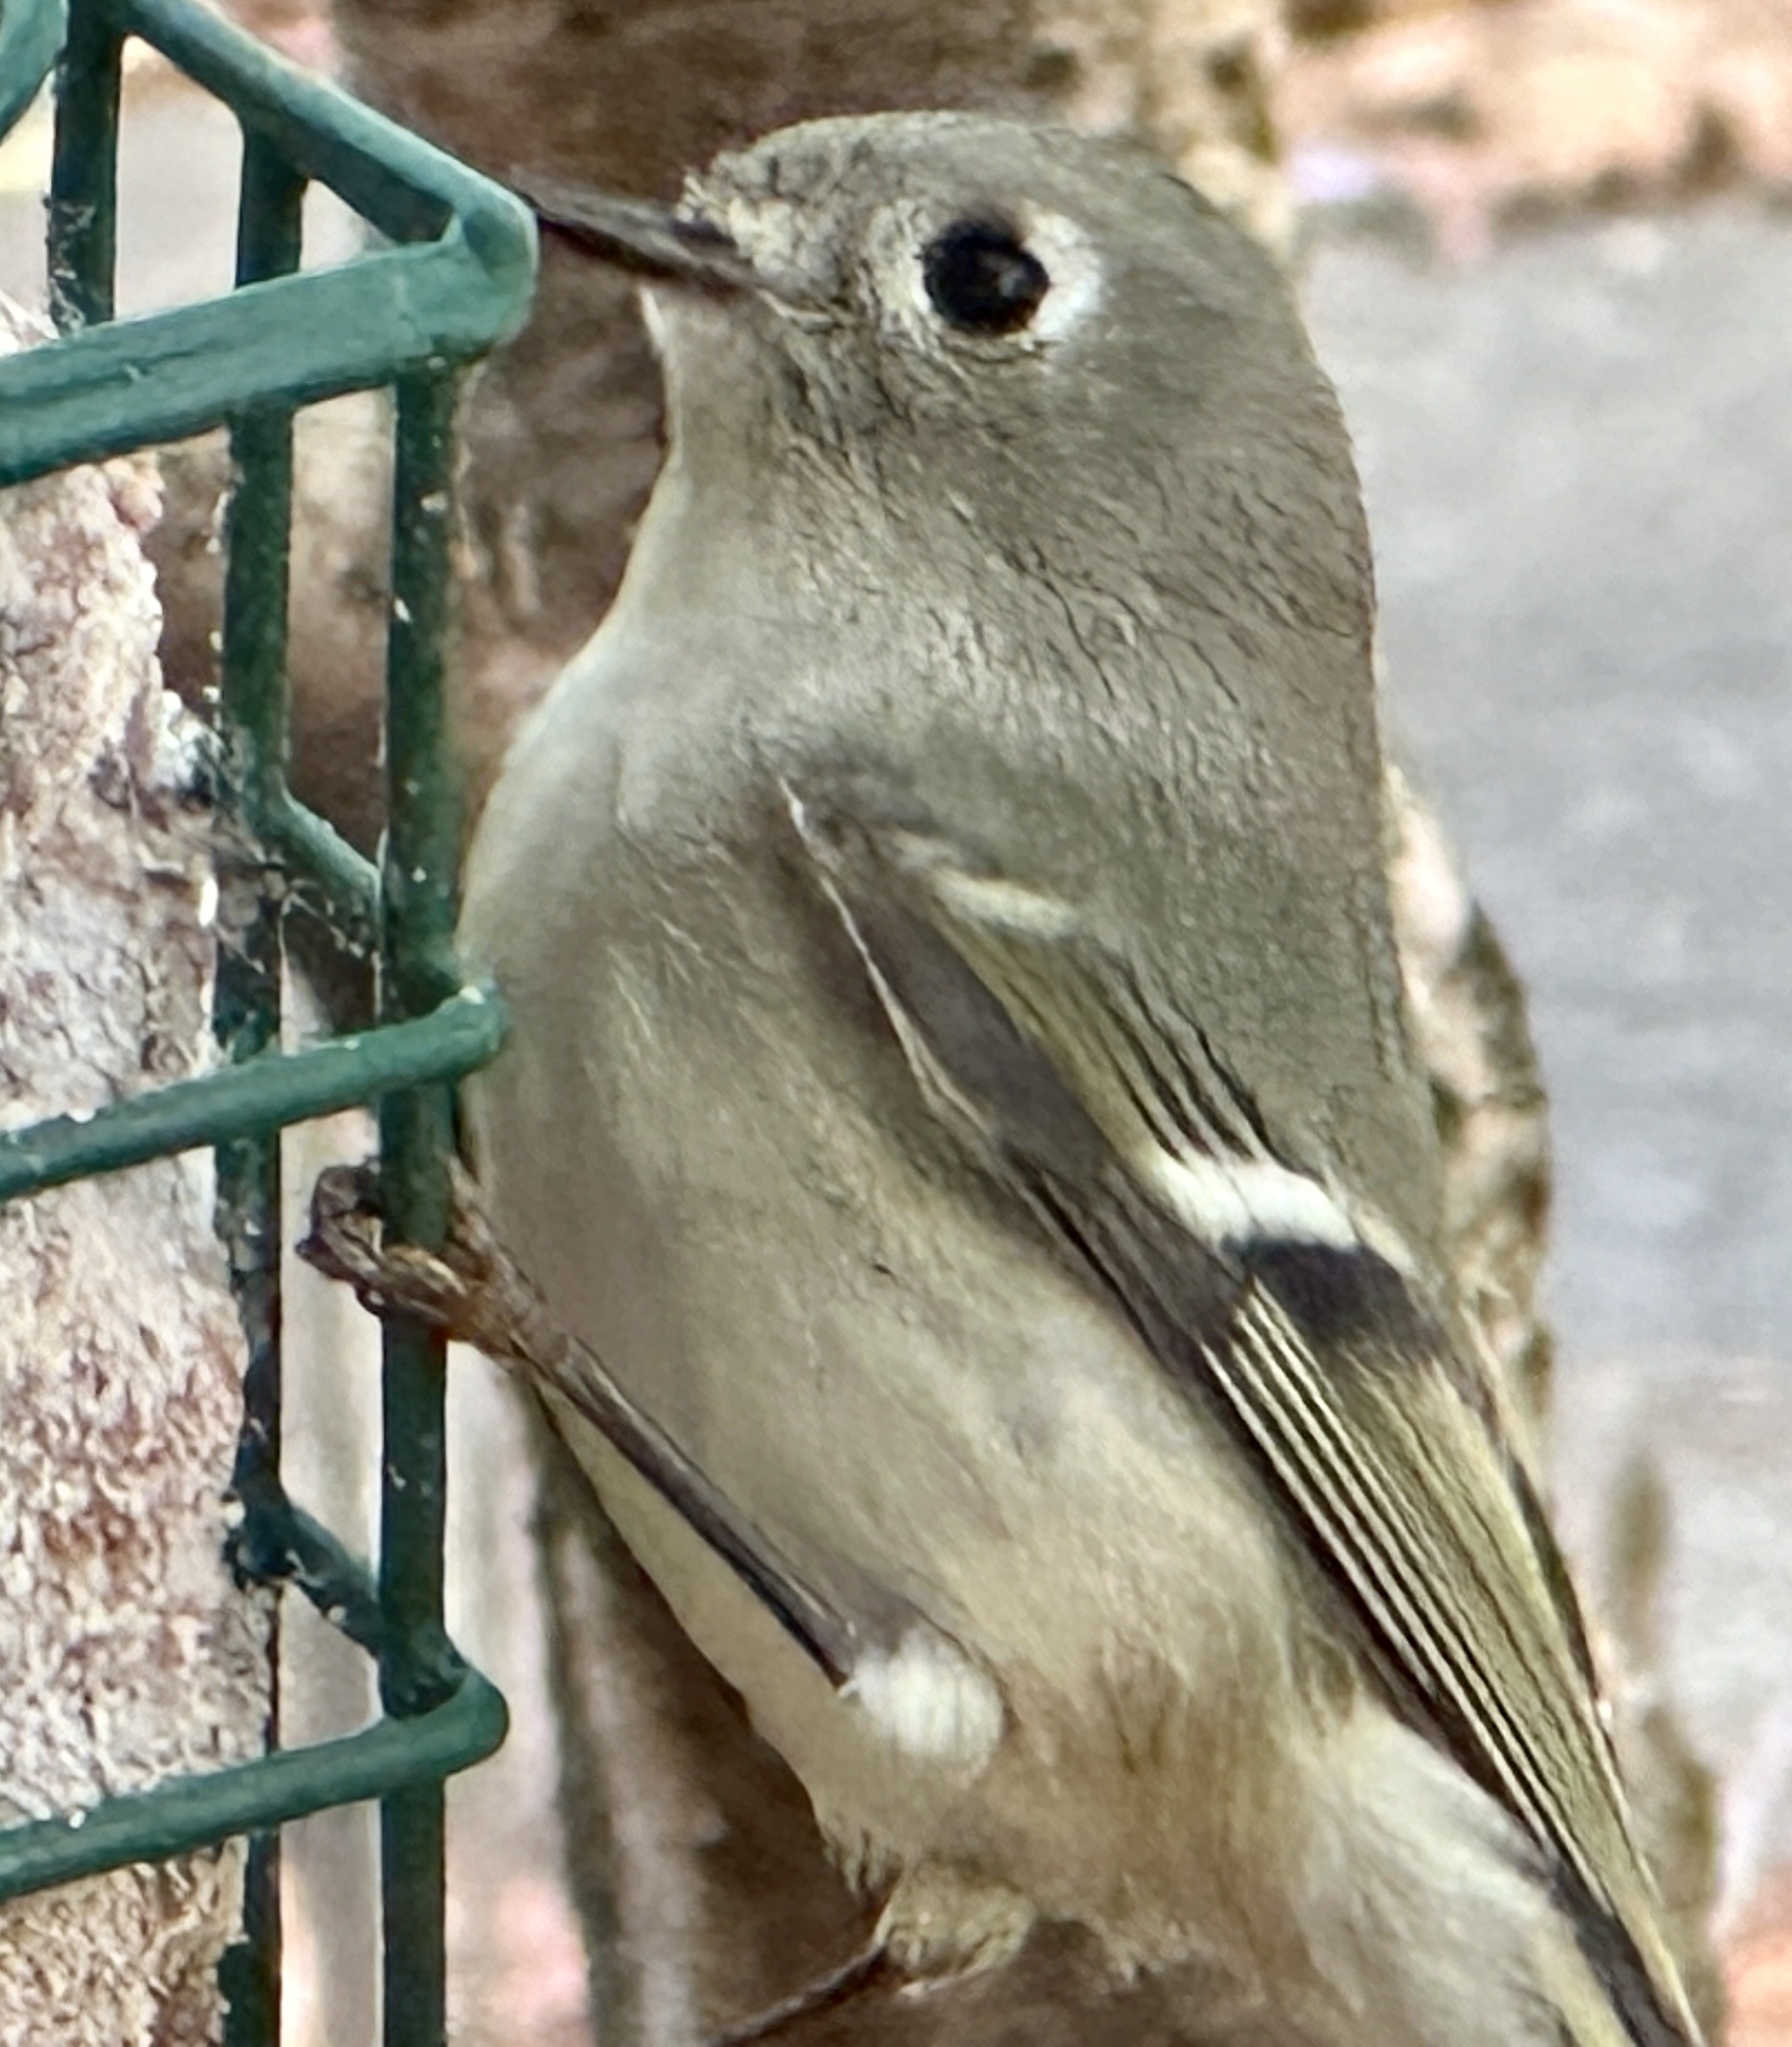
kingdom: Animalia
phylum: Chordata
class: Aves
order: Passeriformes
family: Regulidae
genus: Regulus
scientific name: Regulus calendula
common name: Ruby-crowned kinglet
